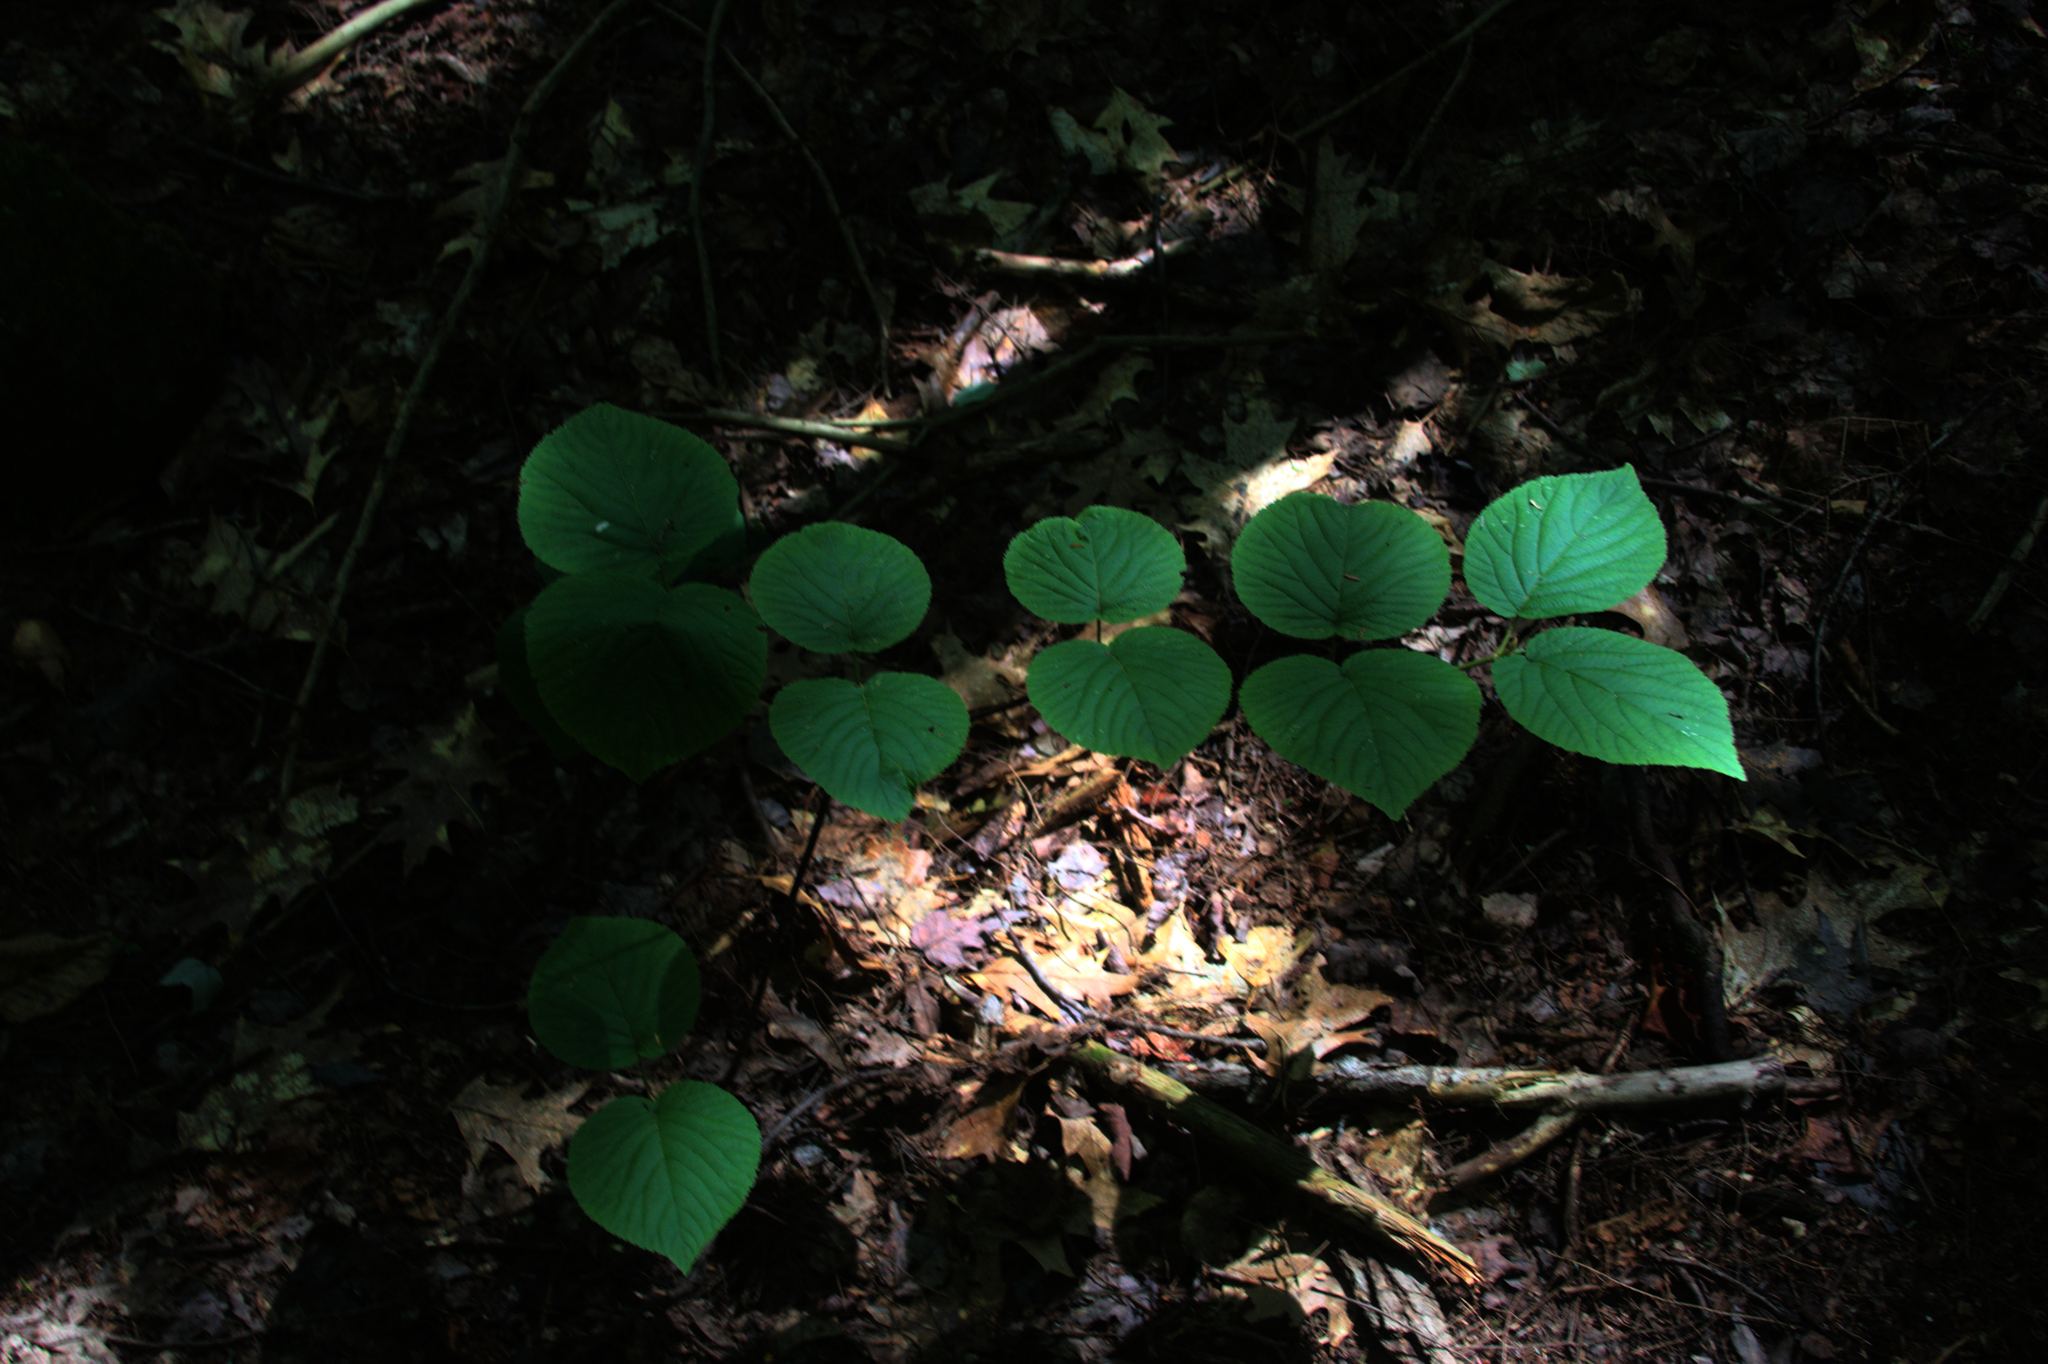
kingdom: Plantae
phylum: Tracheophyta
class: Magnoliopsida
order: Dipsacales
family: Viburnaceae
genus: Viburnum
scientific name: Viburnum lantanoides
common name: Hobblebush
